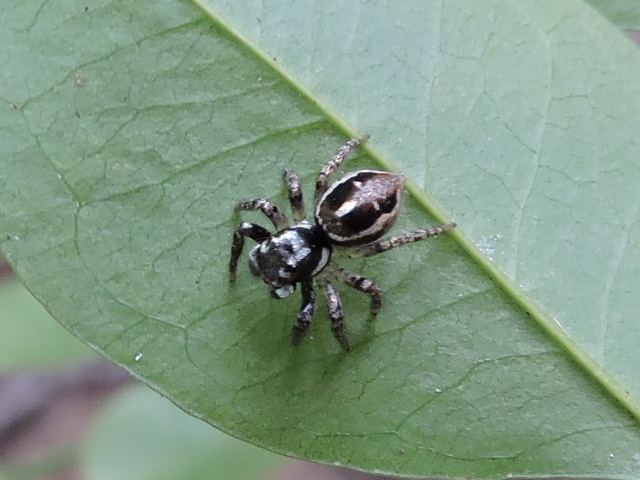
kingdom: Animalia
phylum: Arthropoda
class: Arachnida
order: Araneae
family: Salticidae
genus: Anasaitis
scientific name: Anasaitis canosa
